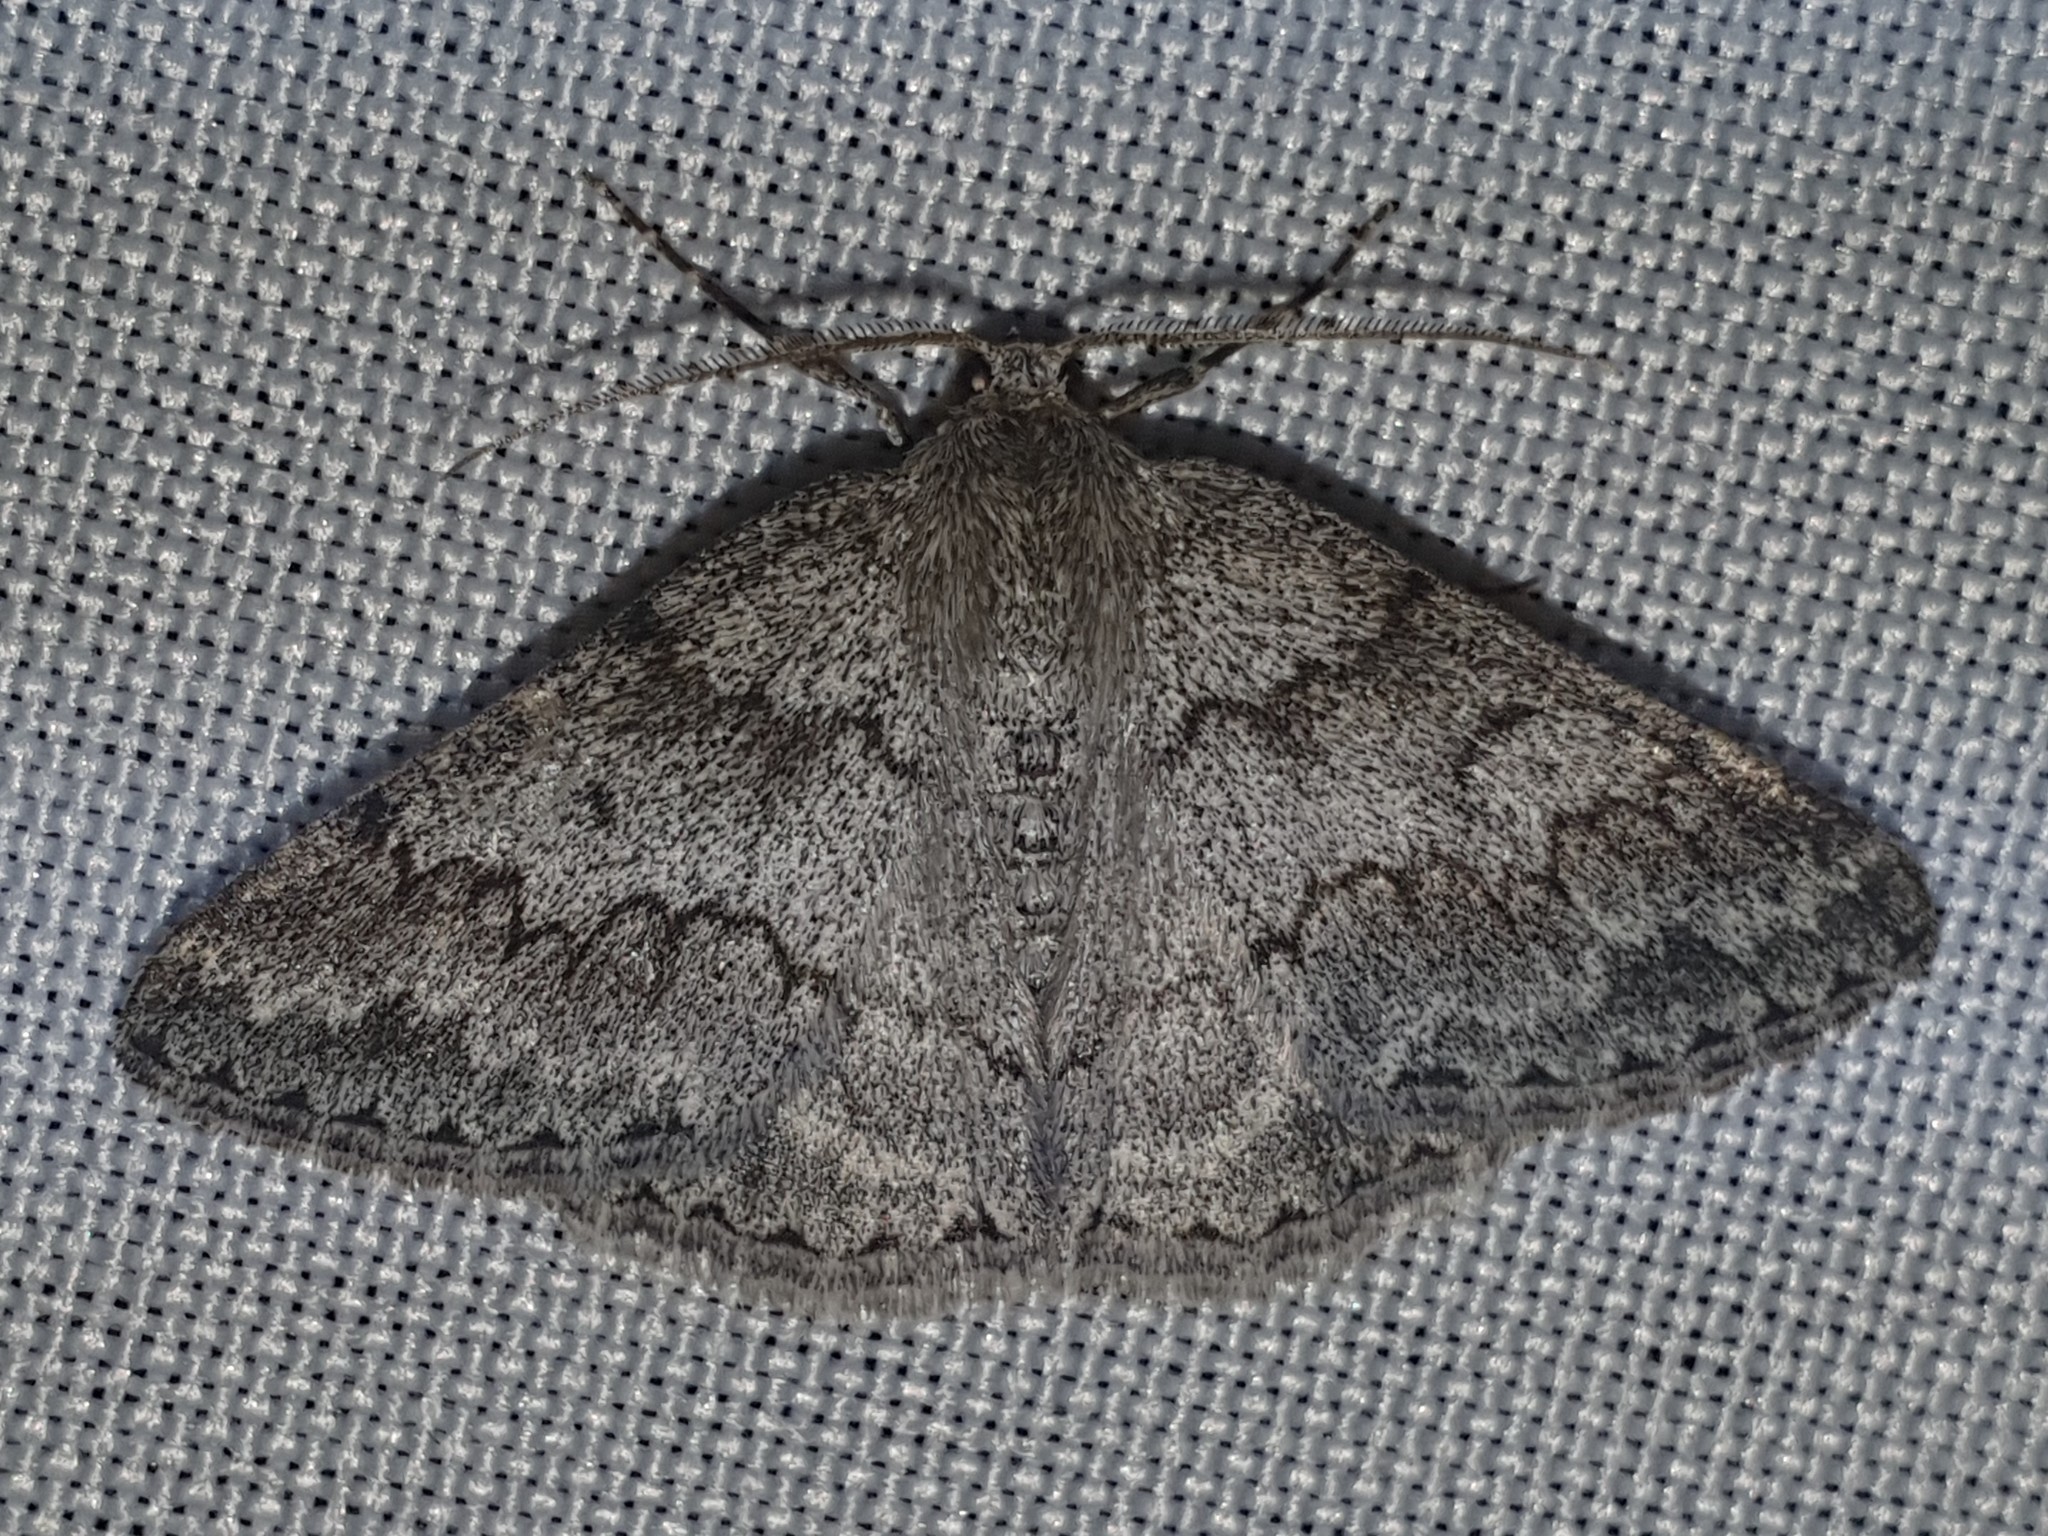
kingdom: Animalia
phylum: Arthropoda
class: Insecta
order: Lepidoptera
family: Geometridae
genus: Pseudoterpna
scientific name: Pseudoterpna coronillaria
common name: Jersey emerald
